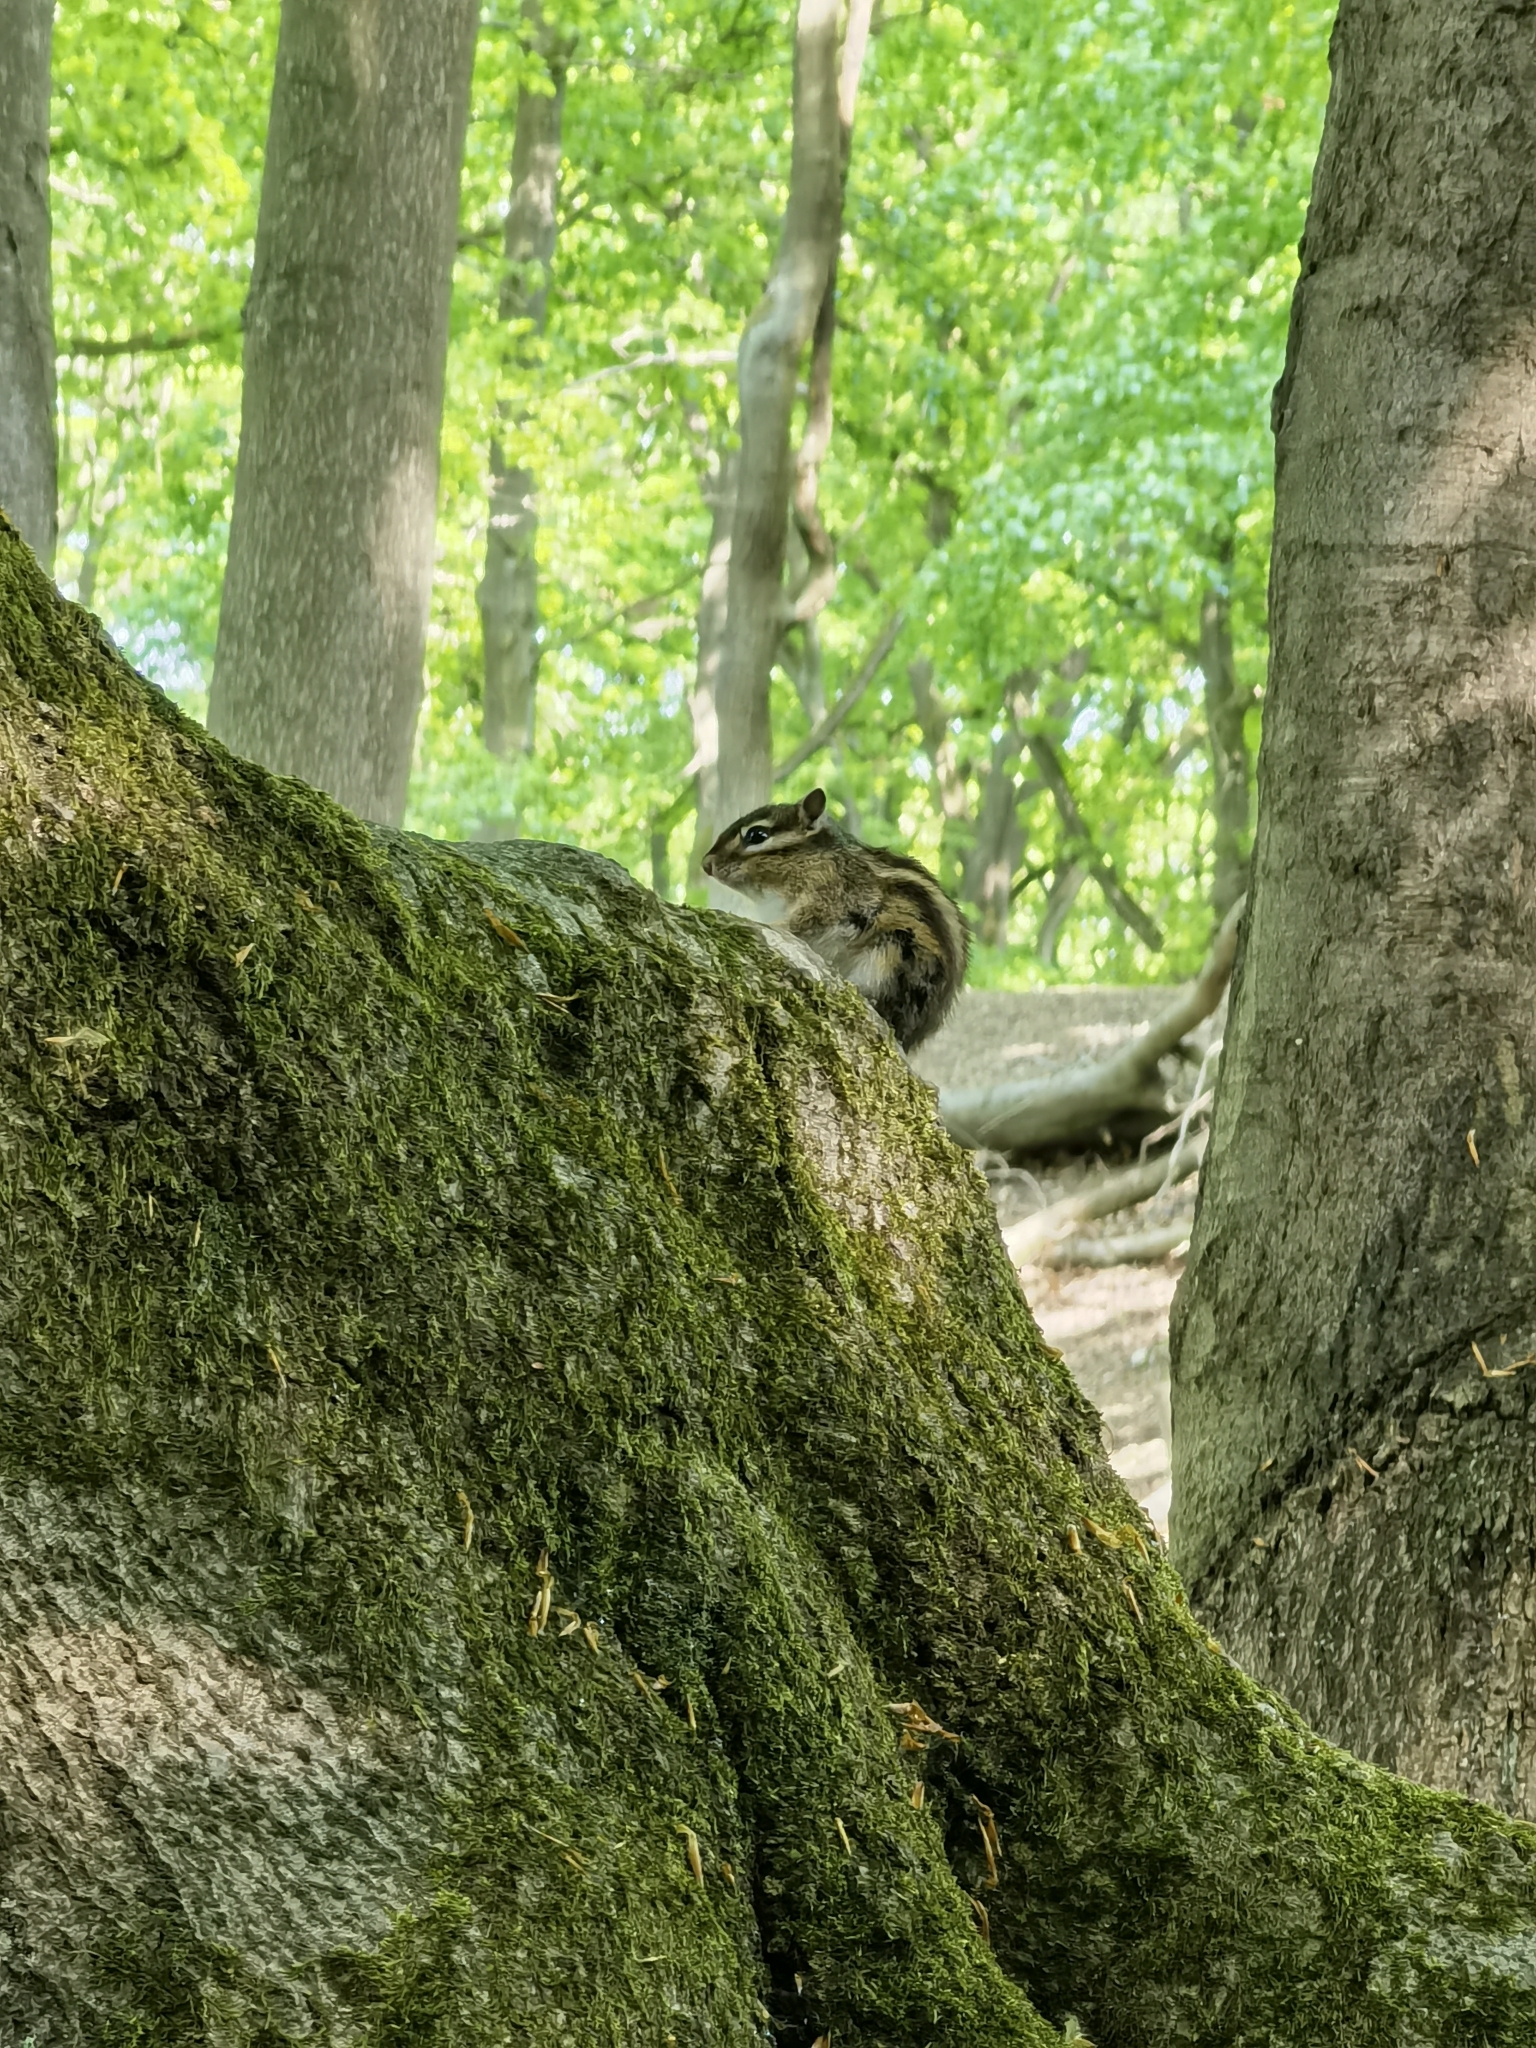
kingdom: Animalia
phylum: Chordata
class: Mammalia
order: Rodentia
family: Sciuridae
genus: Tamias
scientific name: Tamias sibiricus
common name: Siberian chipmunk
